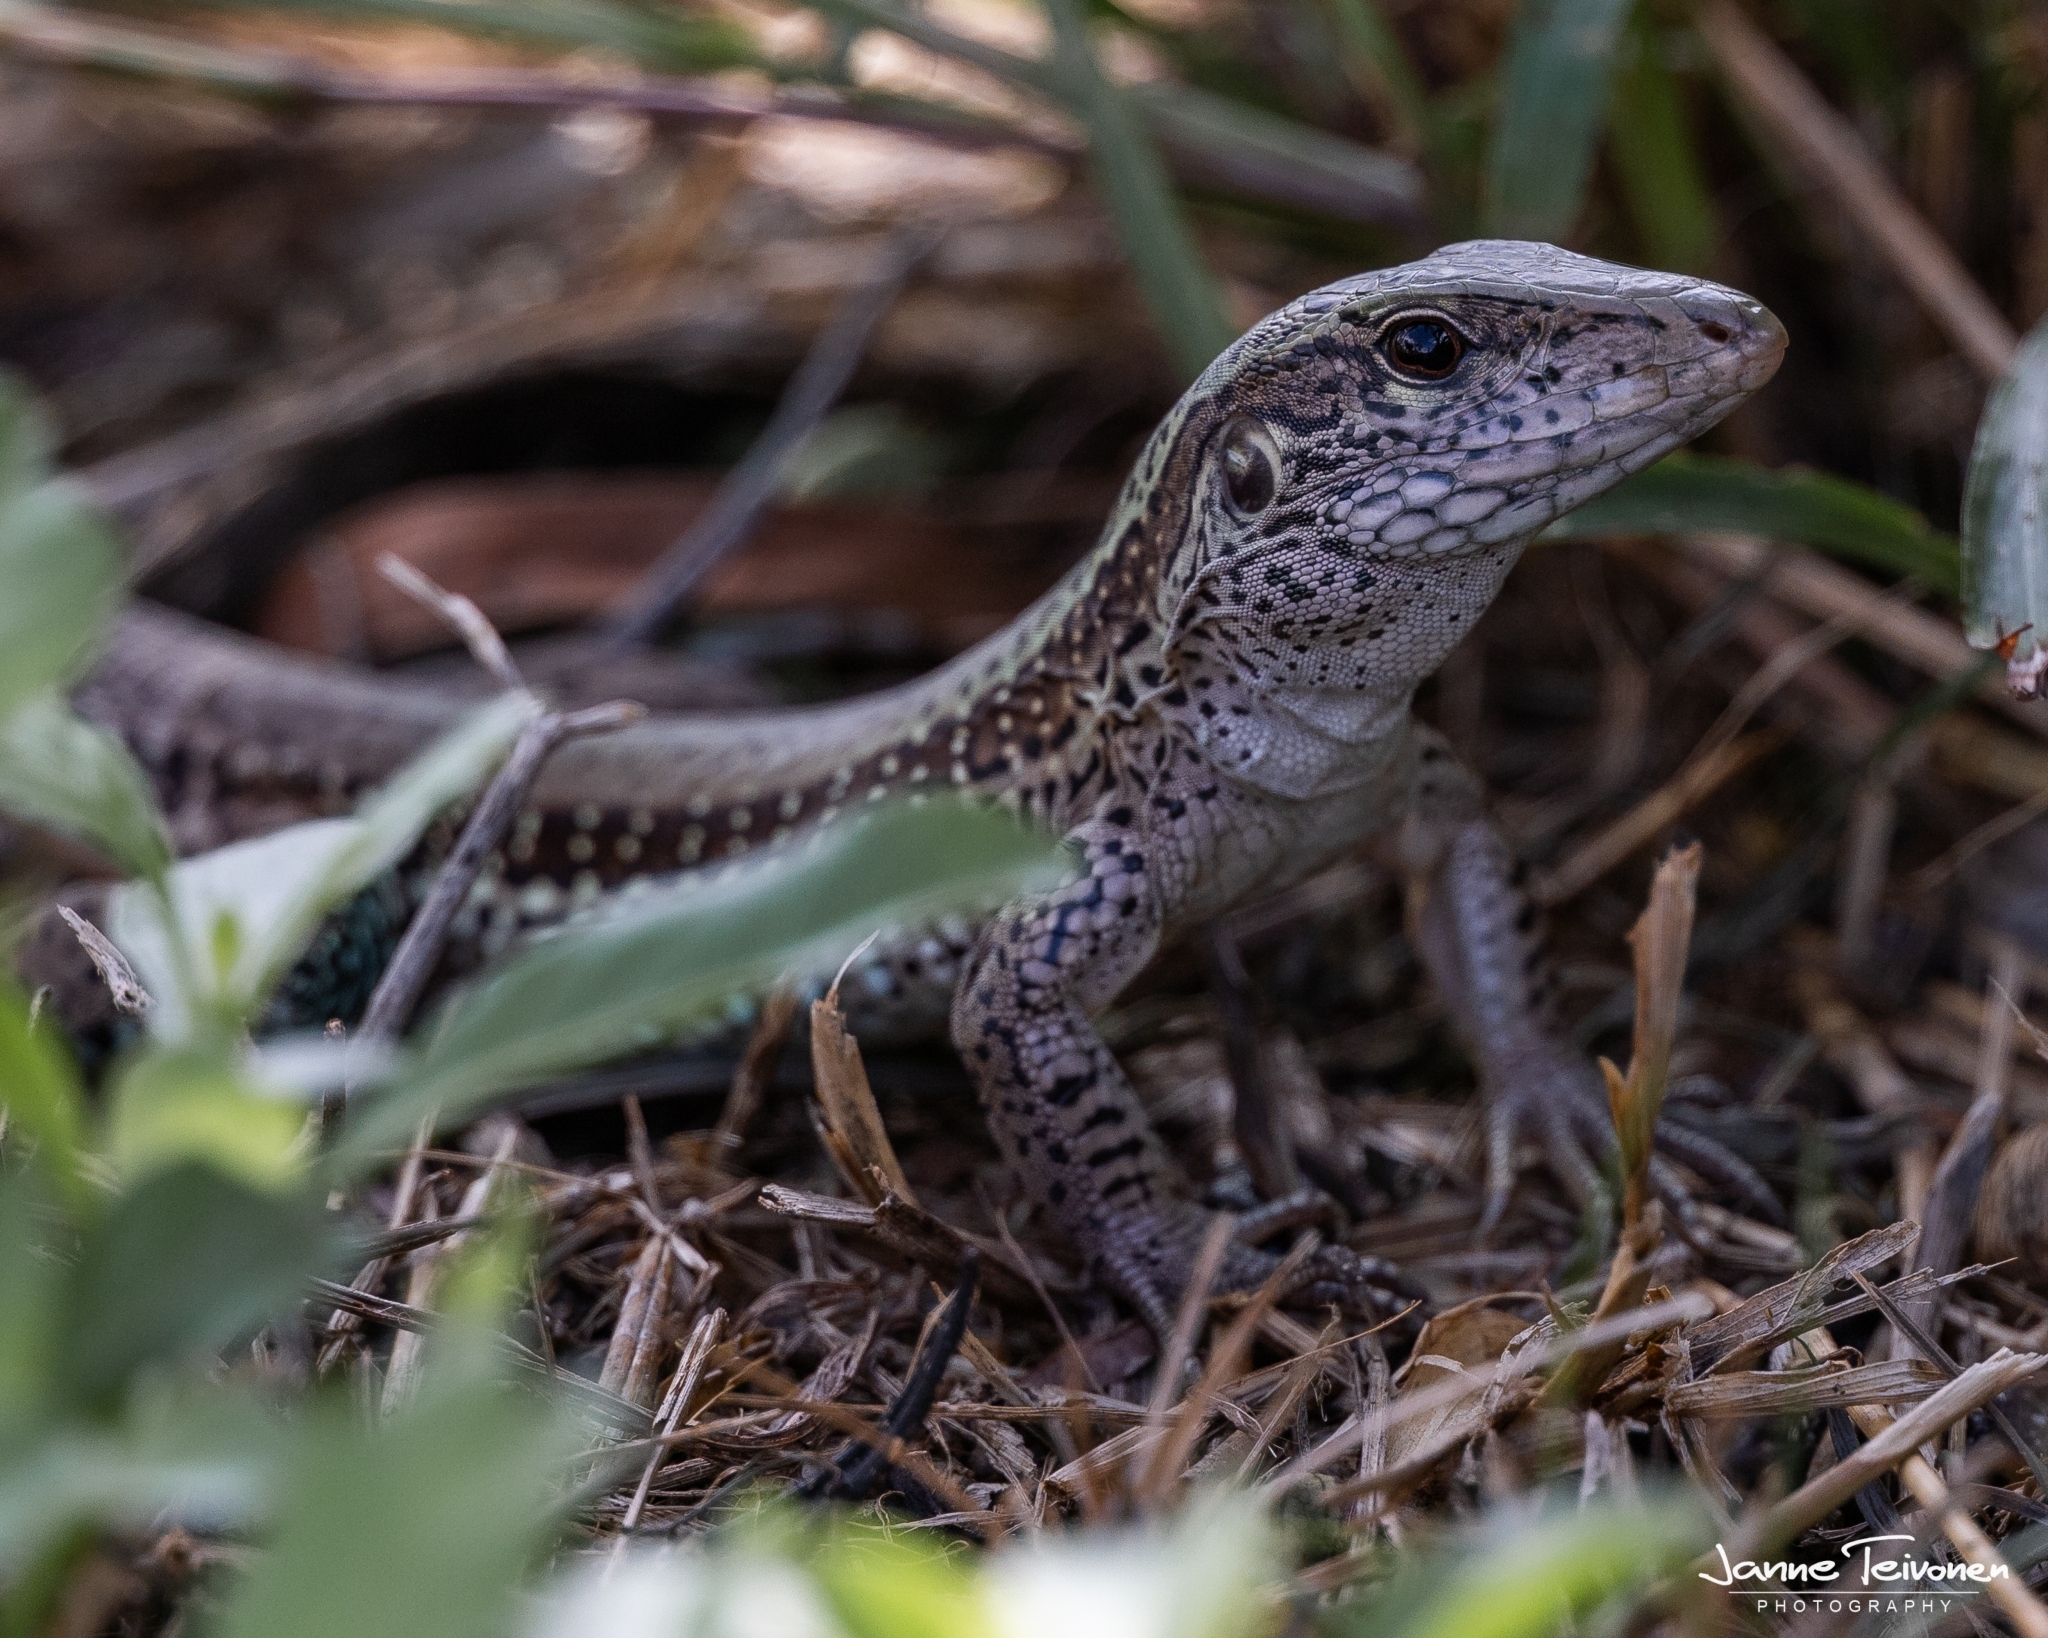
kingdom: Animalia
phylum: Chordata
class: Squamata
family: Teiidae
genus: Ameiva
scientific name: Ameiva ameiva
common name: Giant ameiva
